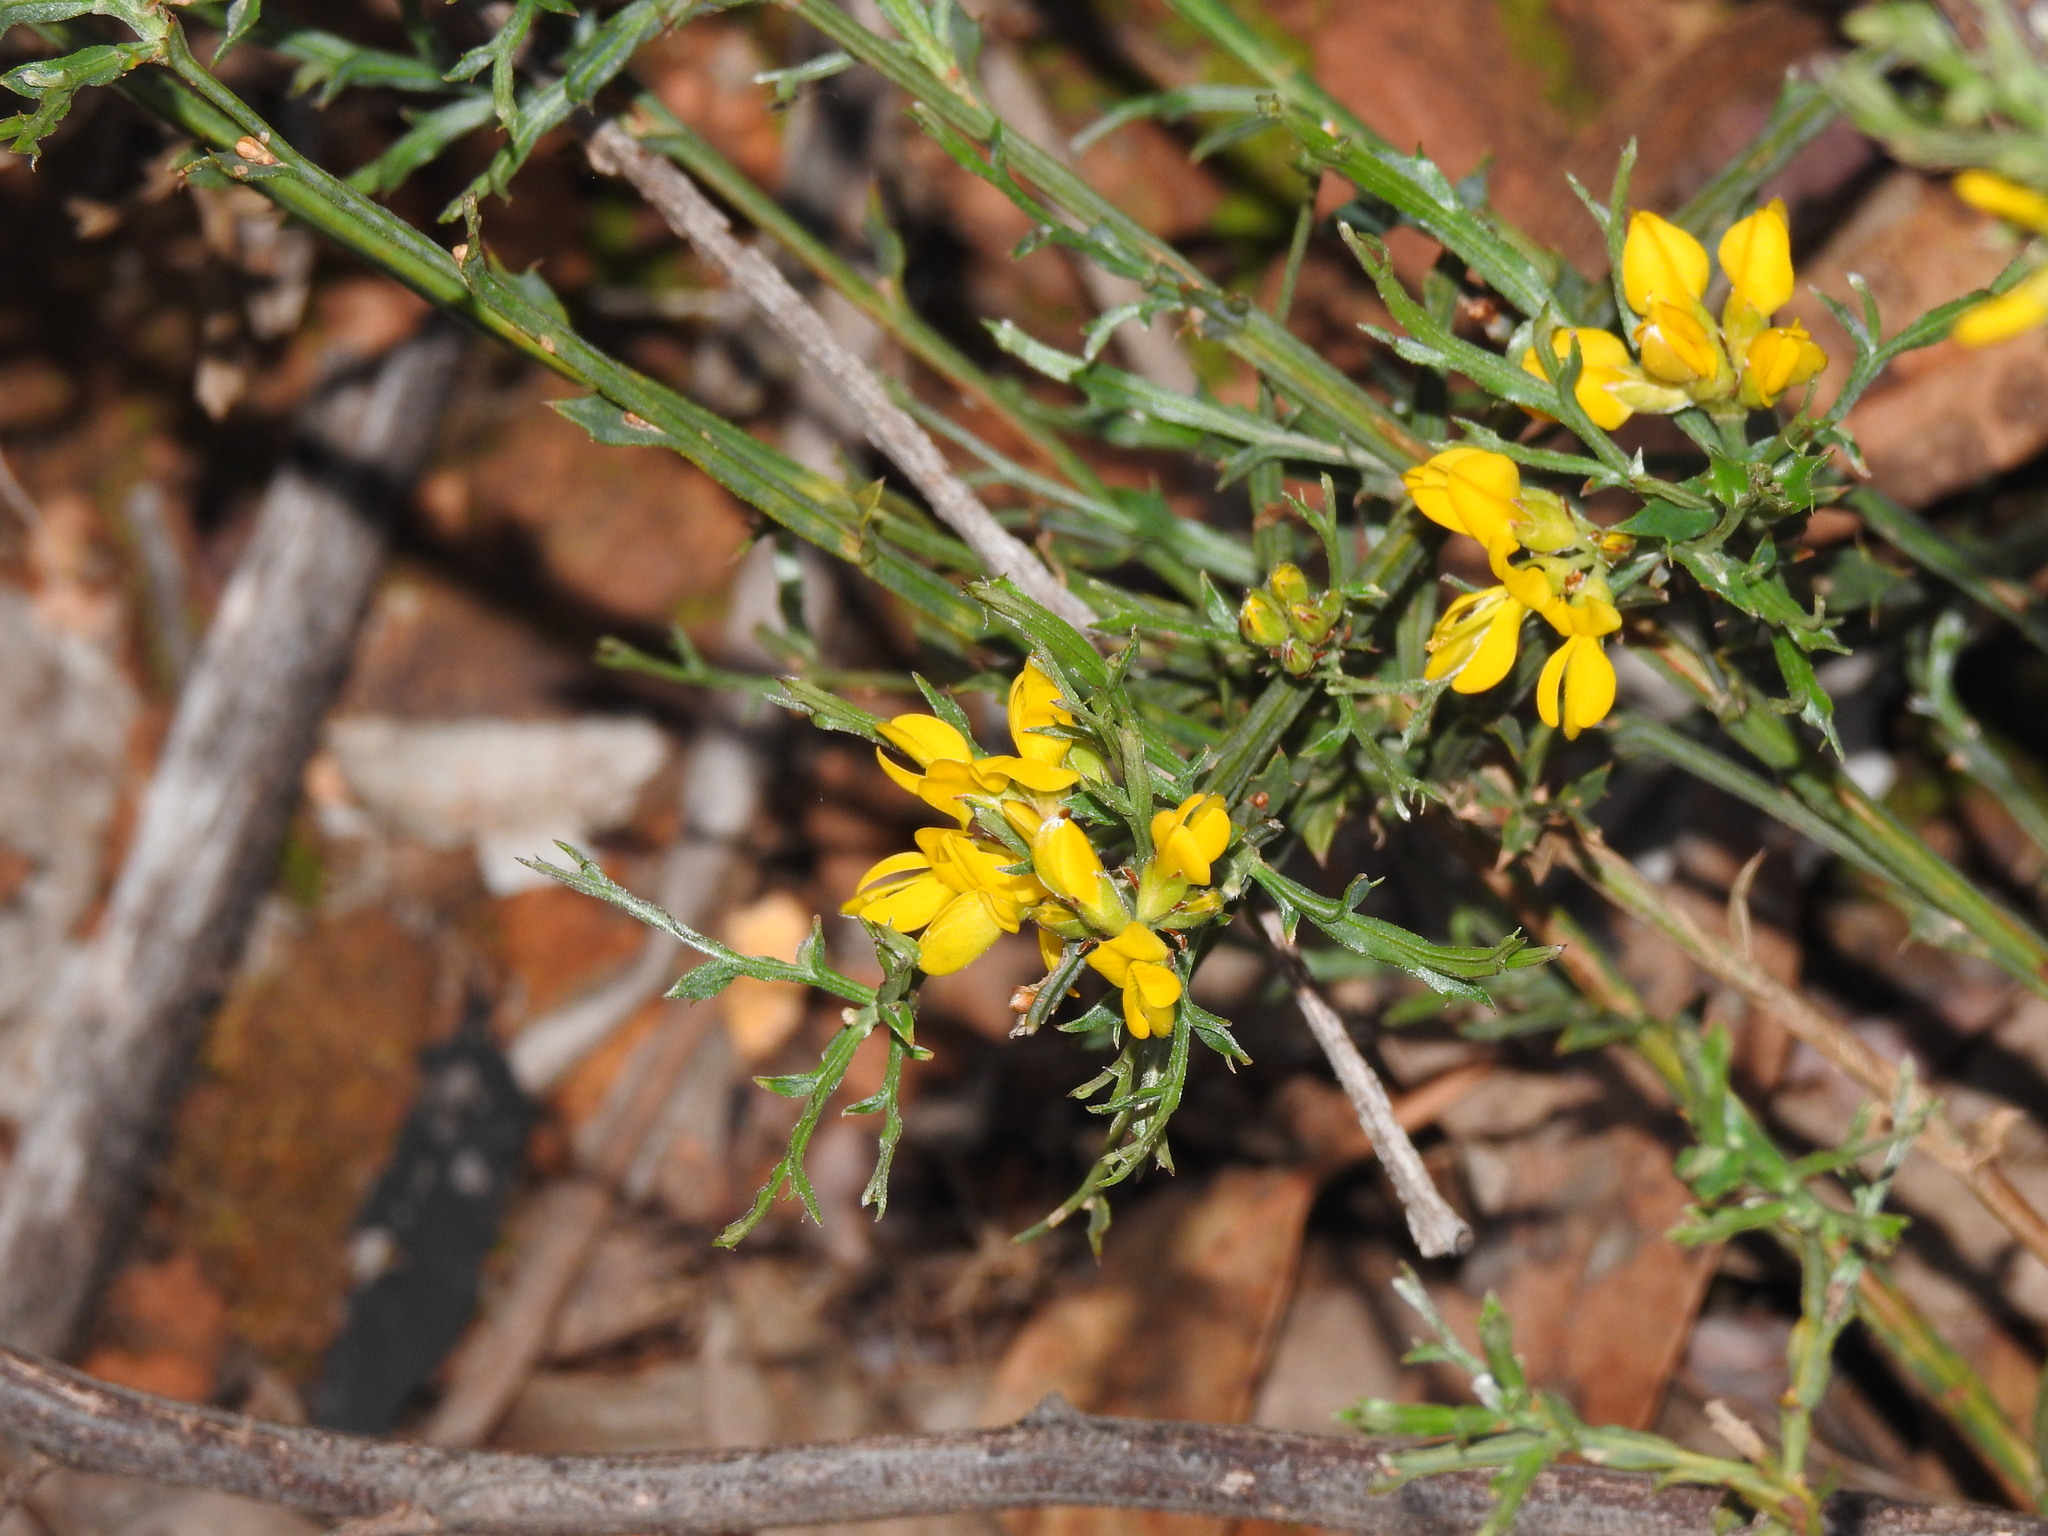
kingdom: Plantae
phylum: Tracheophyta
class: Magnoliopsida
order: Fabales
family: Fabaceae
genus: Genista
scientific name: Genista tridentata
